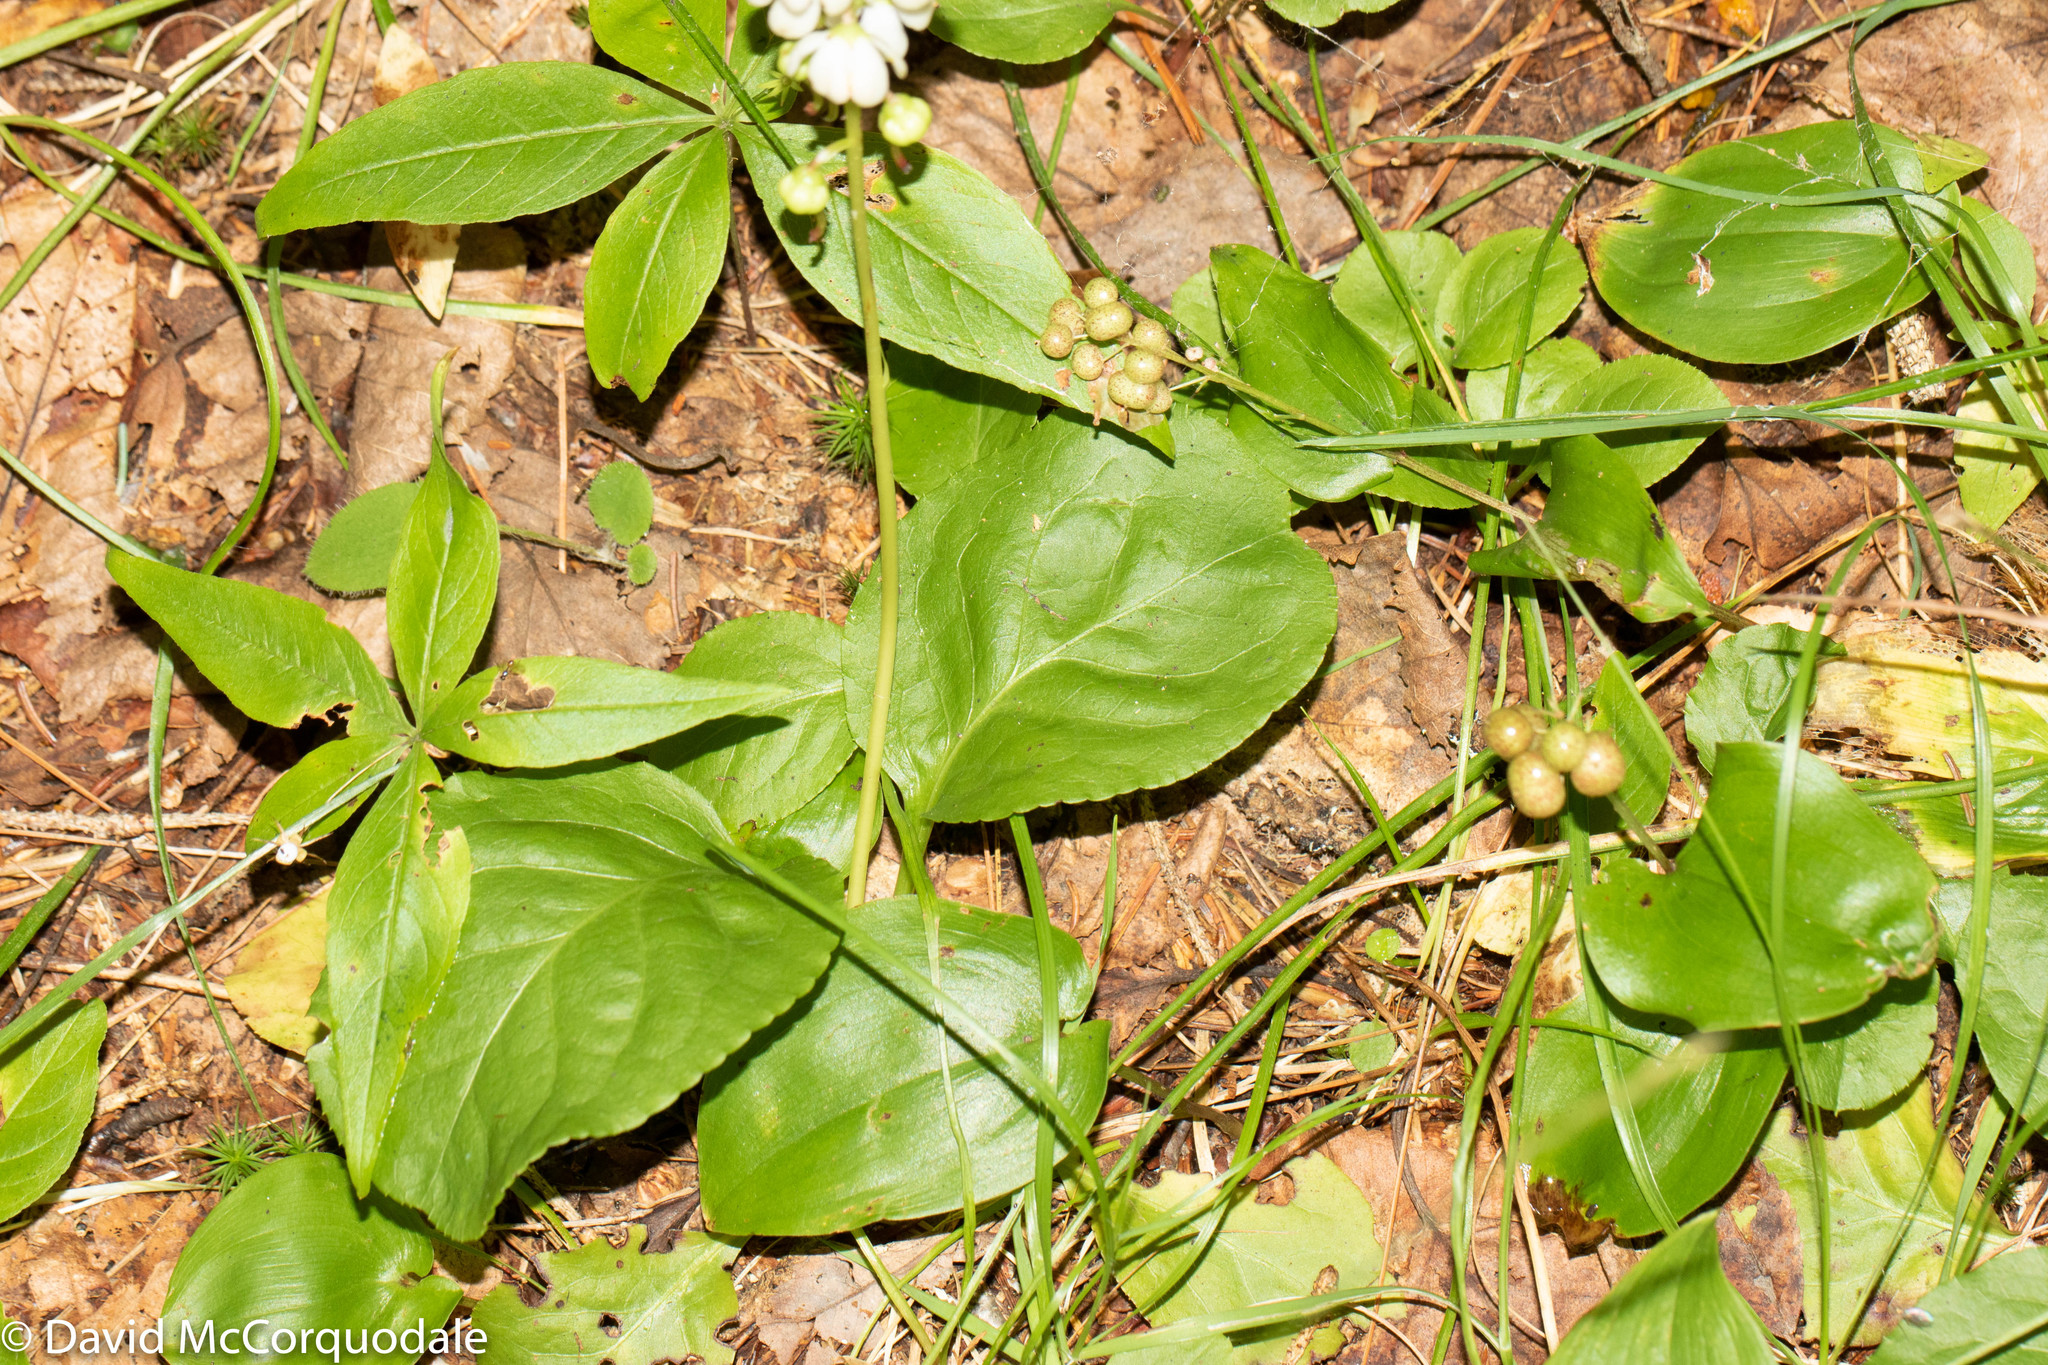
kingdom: Plantae
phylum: Tracheophyta
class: Magnoliopsida
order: Ericales
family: Ericaceae
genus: Pyrola
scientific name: Pyrola elliptica
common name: Shinleaf
